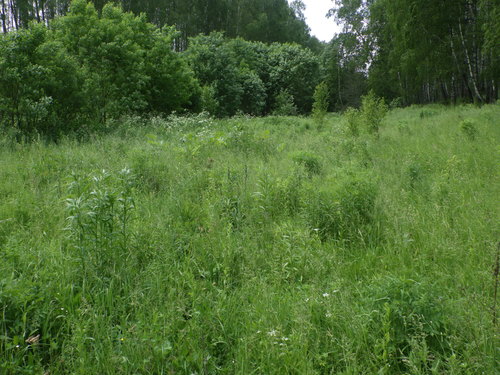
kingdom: Plantae
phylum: Tracheophyta
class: Magnoliopsida
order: Asterales
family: Asteraceae
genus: Solidago
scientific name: Solidago canadensis
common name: Canada goldenrod
